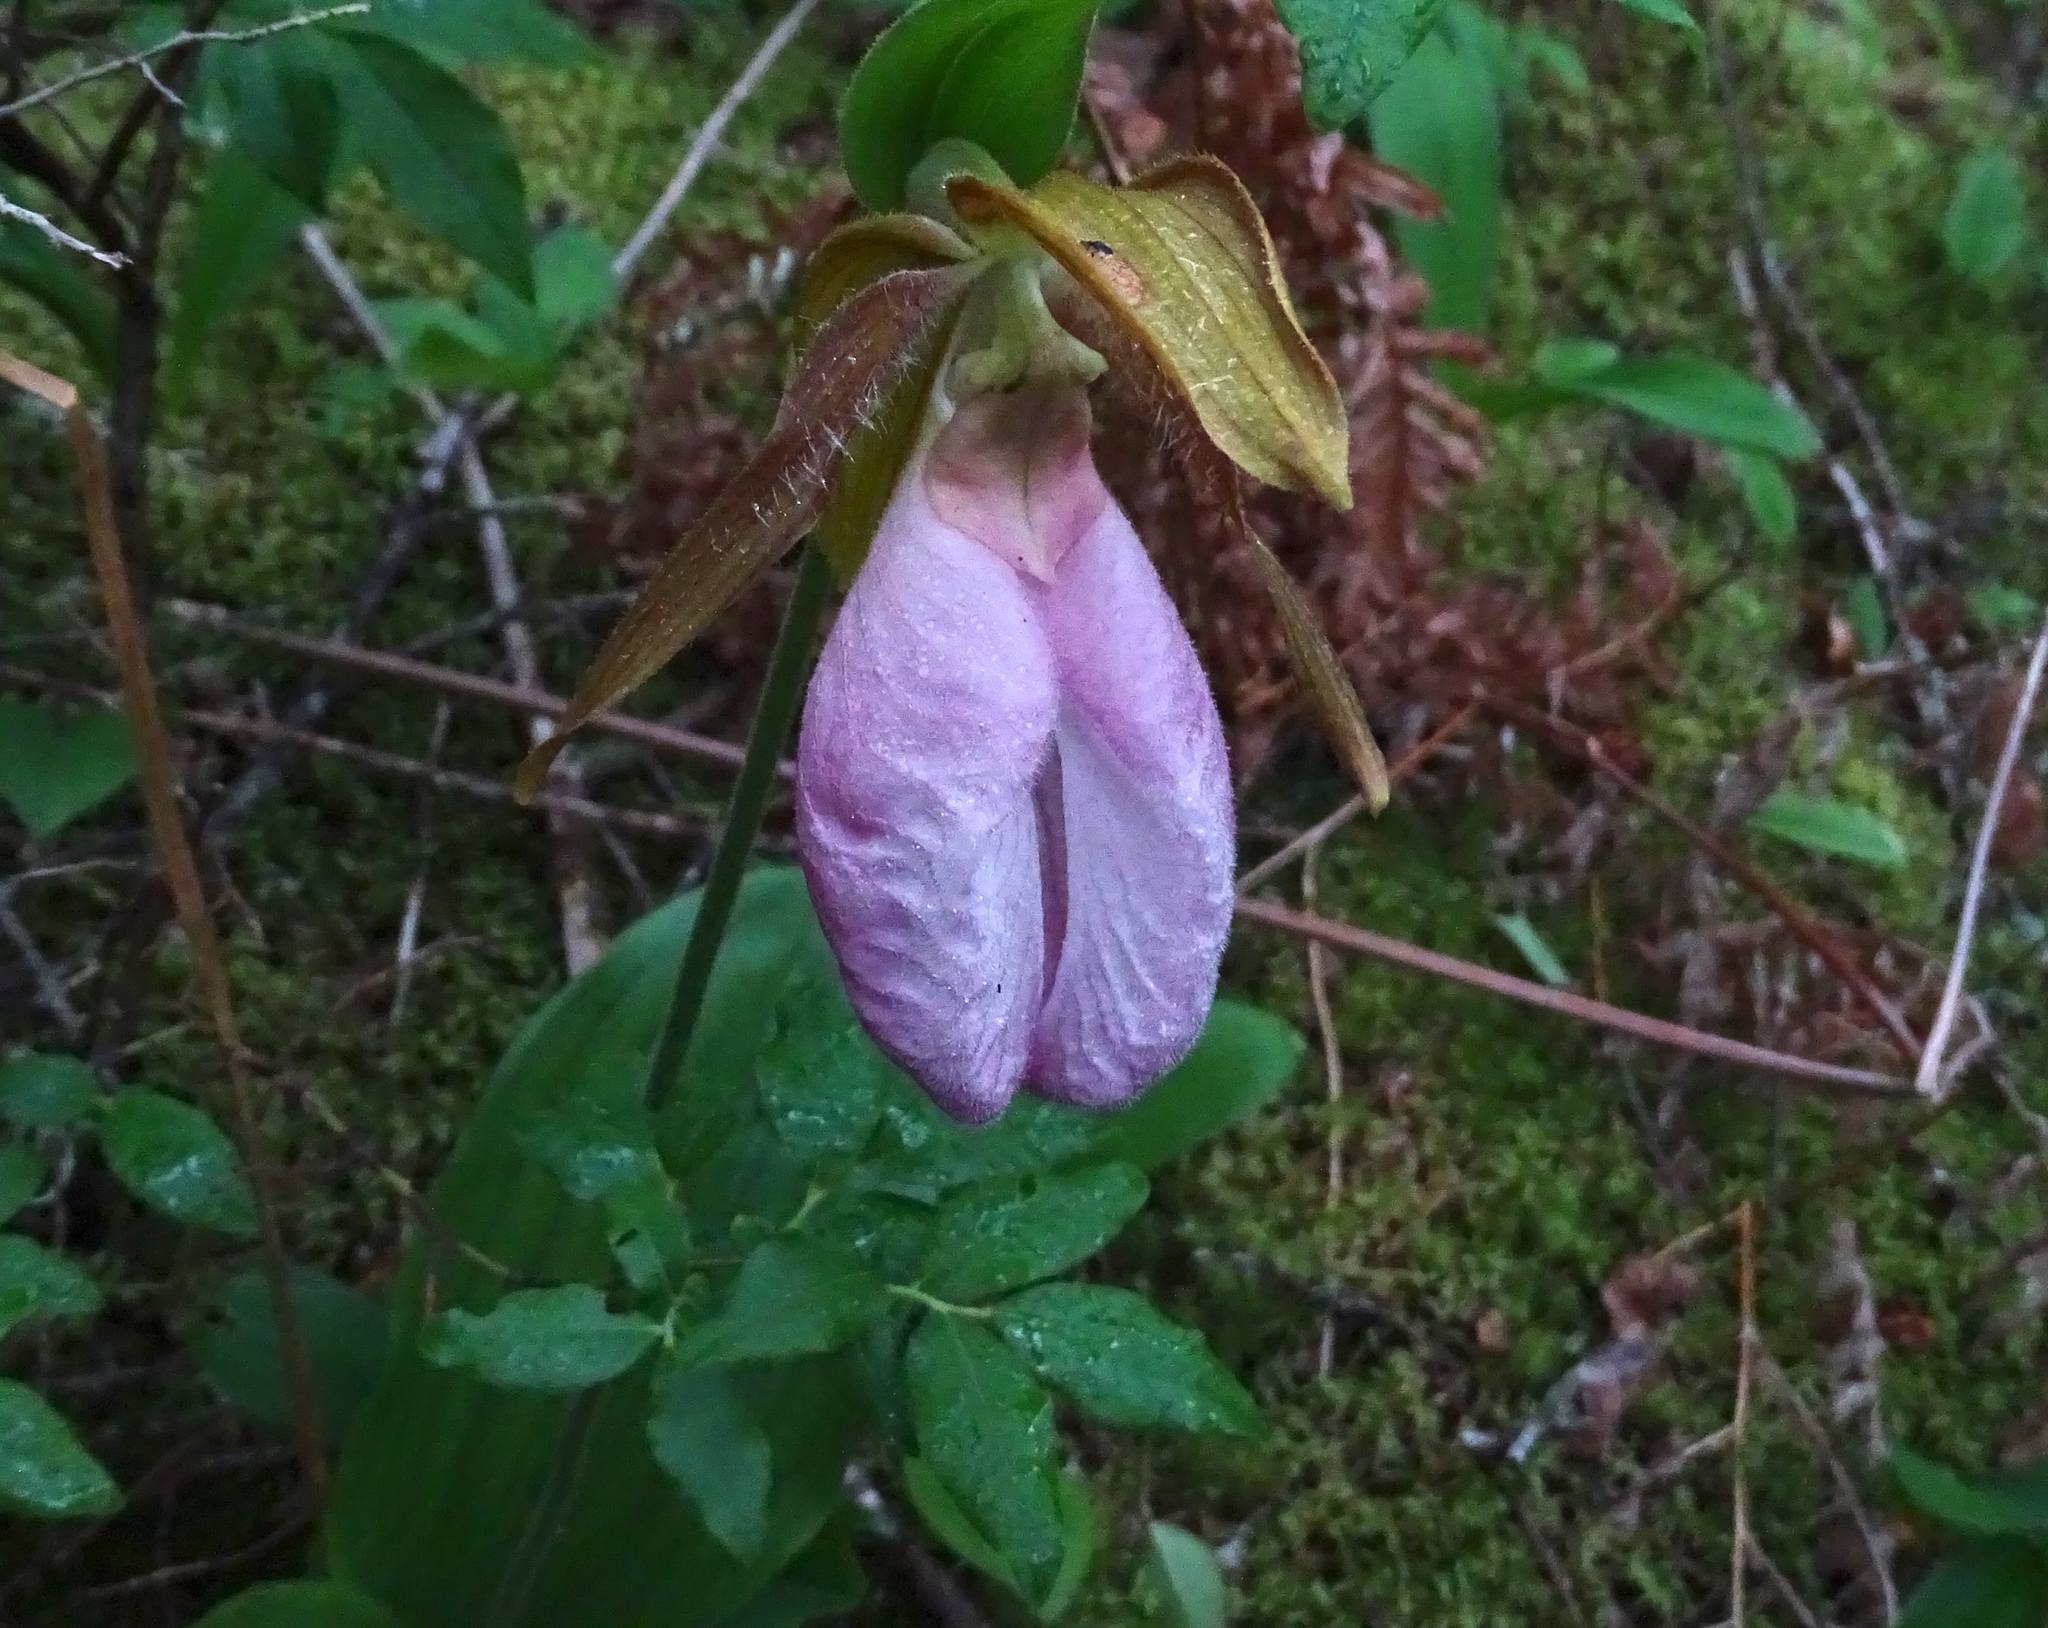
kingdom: Plantae
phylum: Tracheophyta
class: Liliopsida
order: Asparagales
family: Orchidaceae
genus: Cypripedium
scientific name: Cypripedium acaule
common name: Pink lady's-slipper
